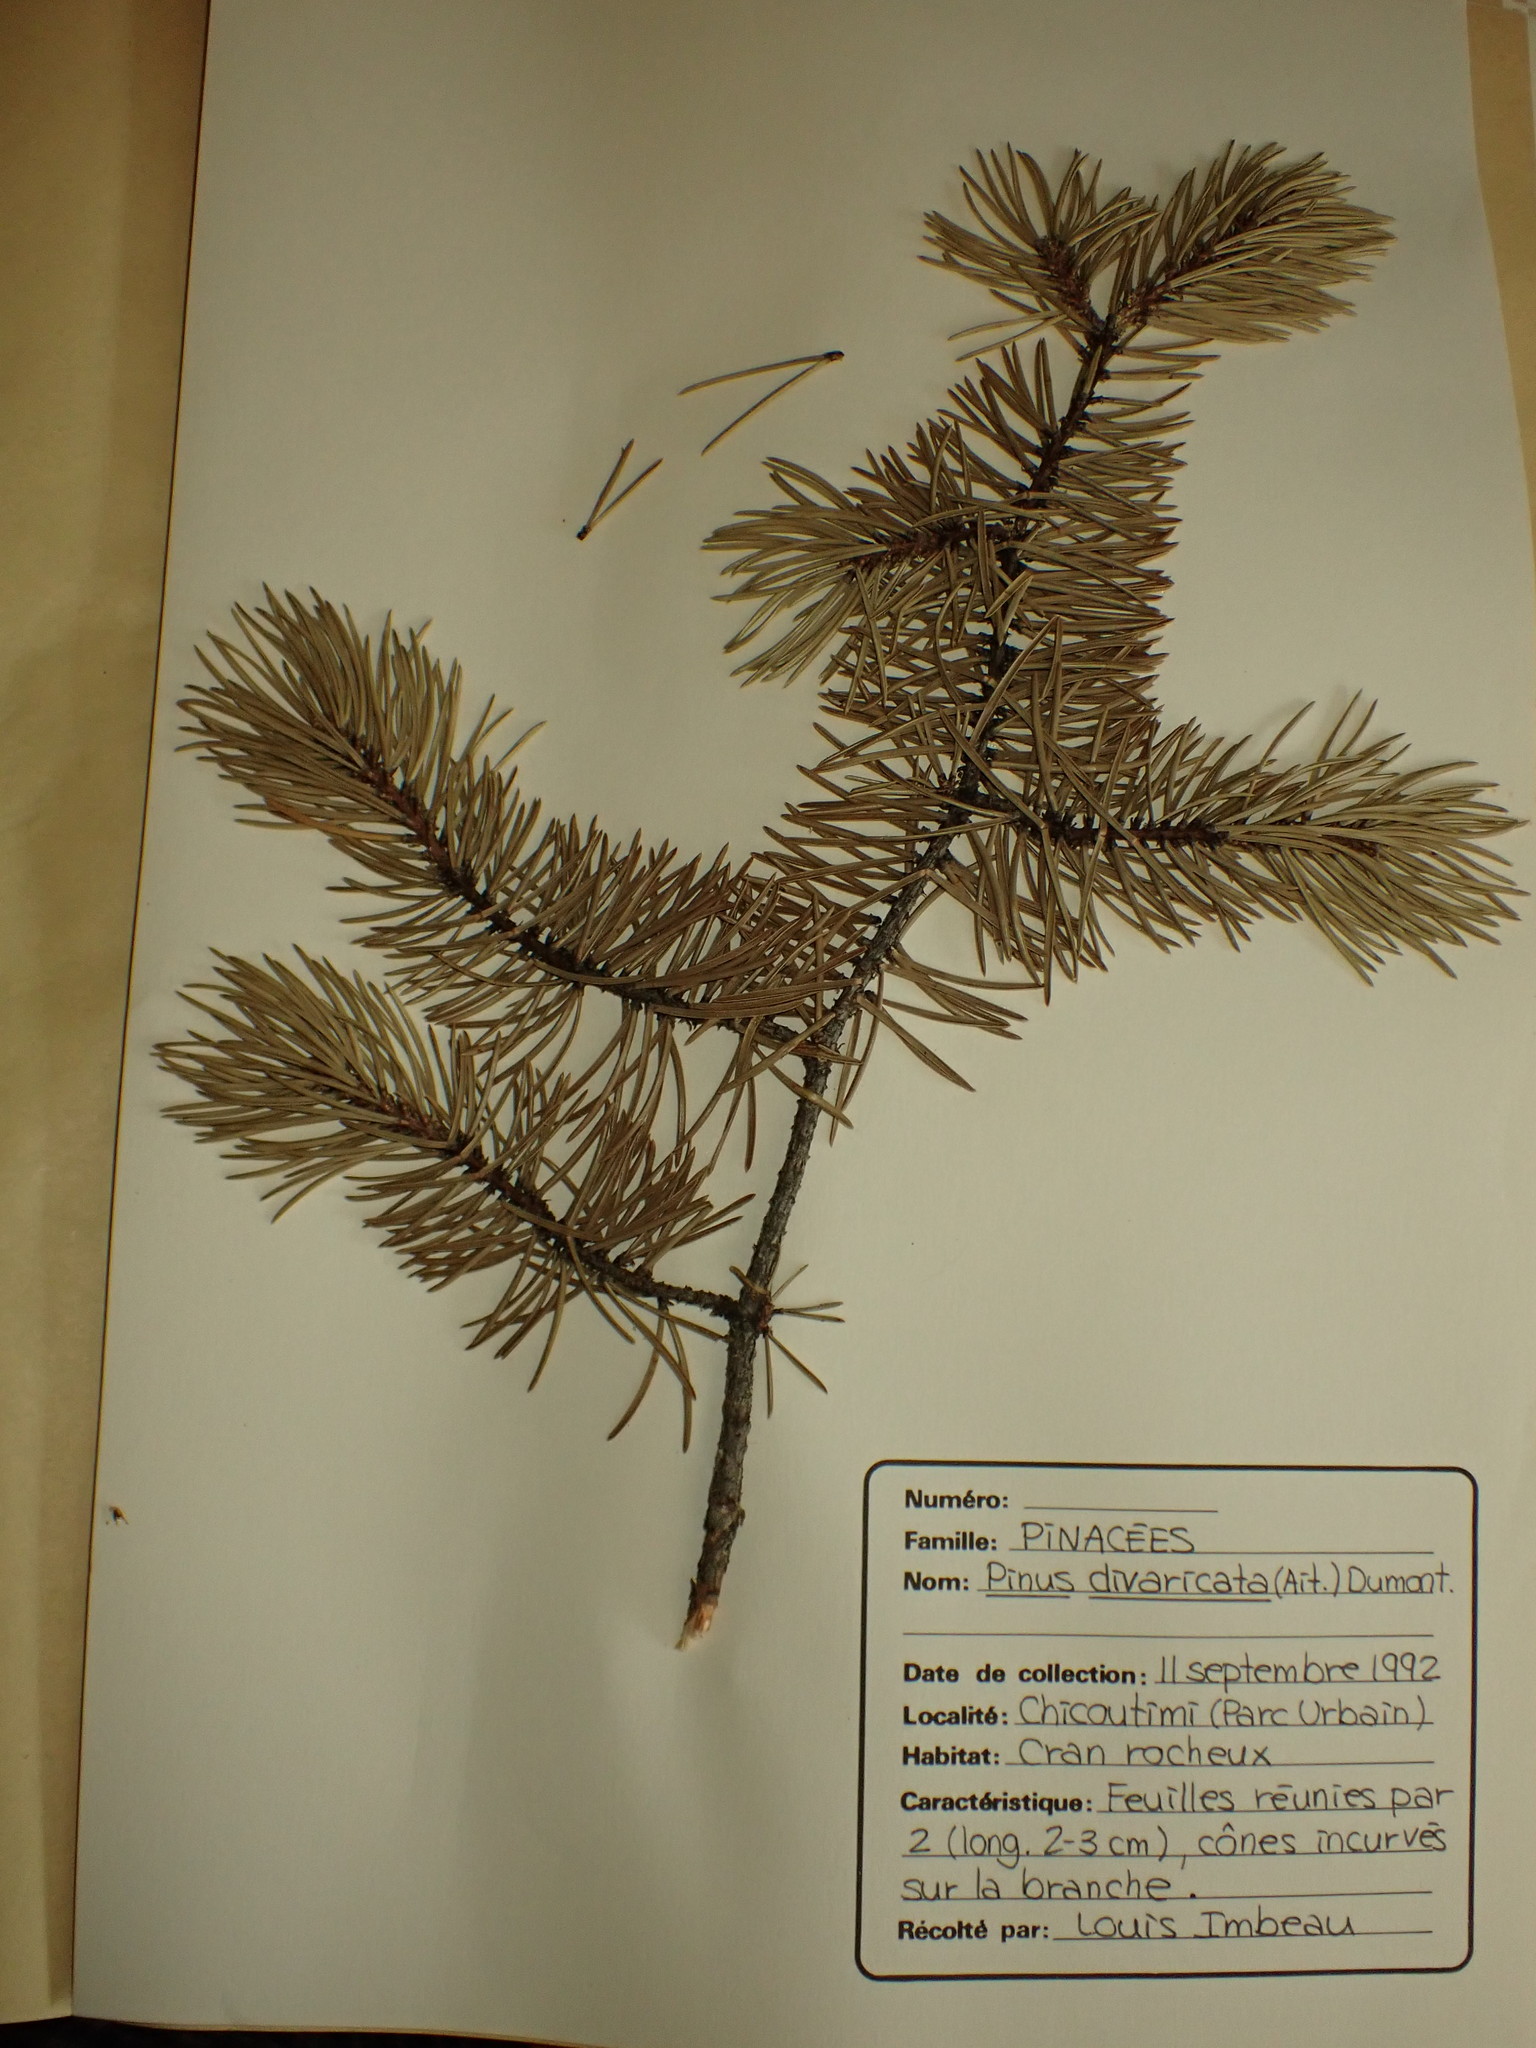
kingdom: Plantae
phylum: Tracheophyta
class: Pinopsida
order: Pinales
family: Pinaceae
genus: Pinus
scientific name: Pinus banksiana
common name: Jack pine
